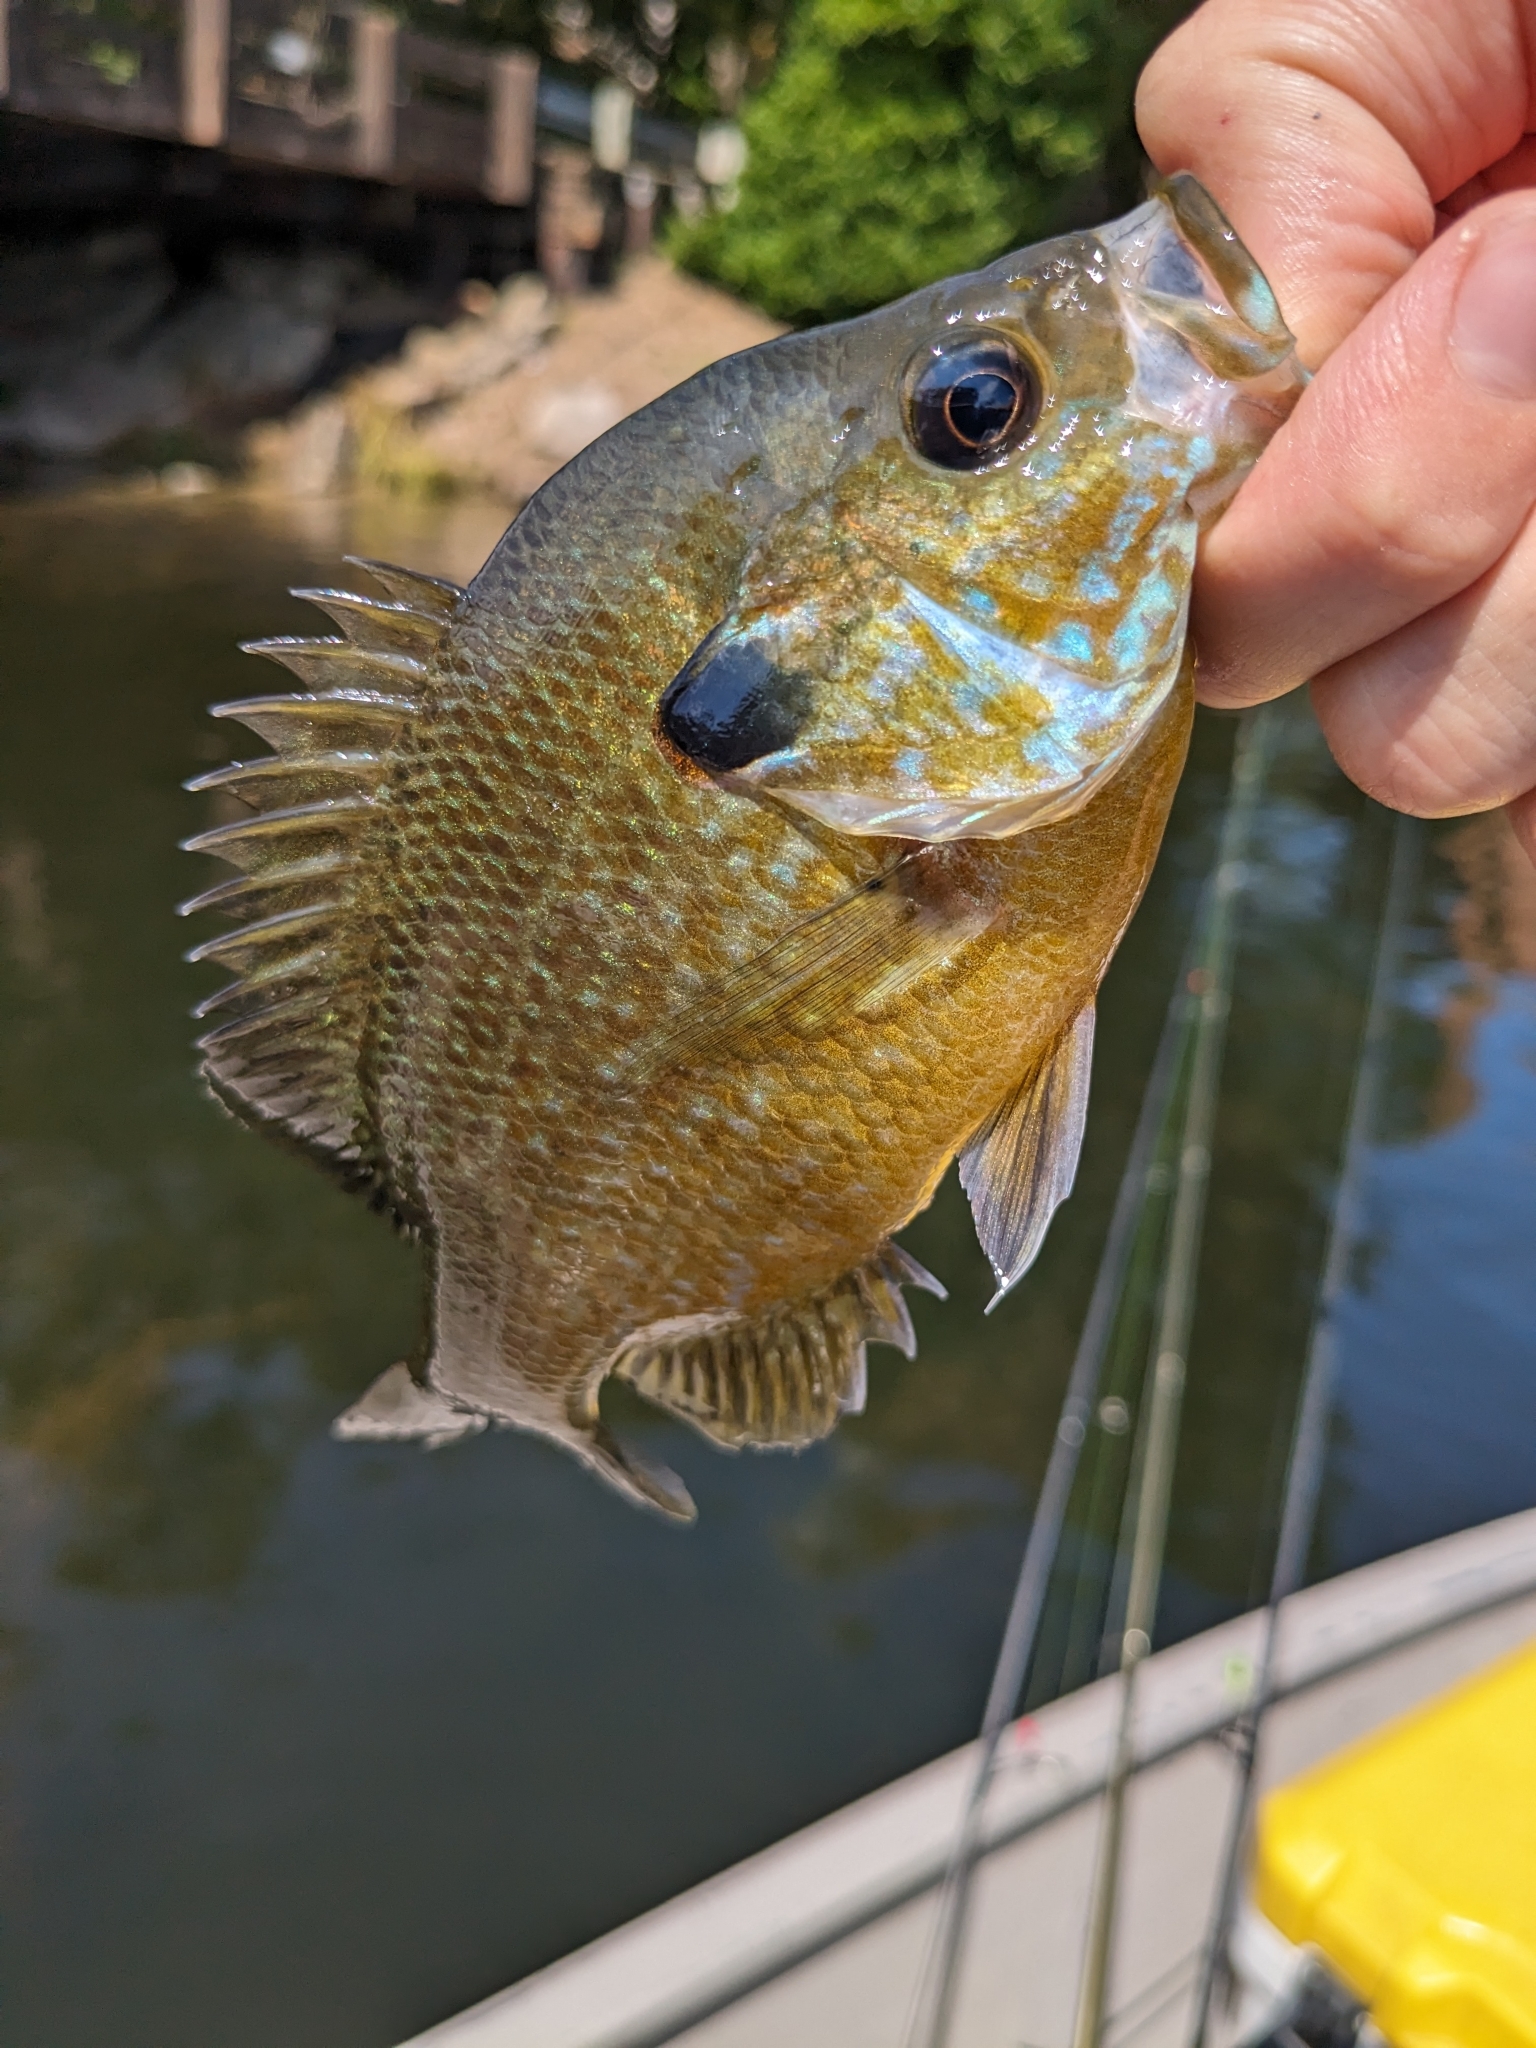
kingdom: Animalia
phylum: Chordata
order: Perciformes
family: Centrarchidae
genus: Lepomis
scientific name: Lepomis
